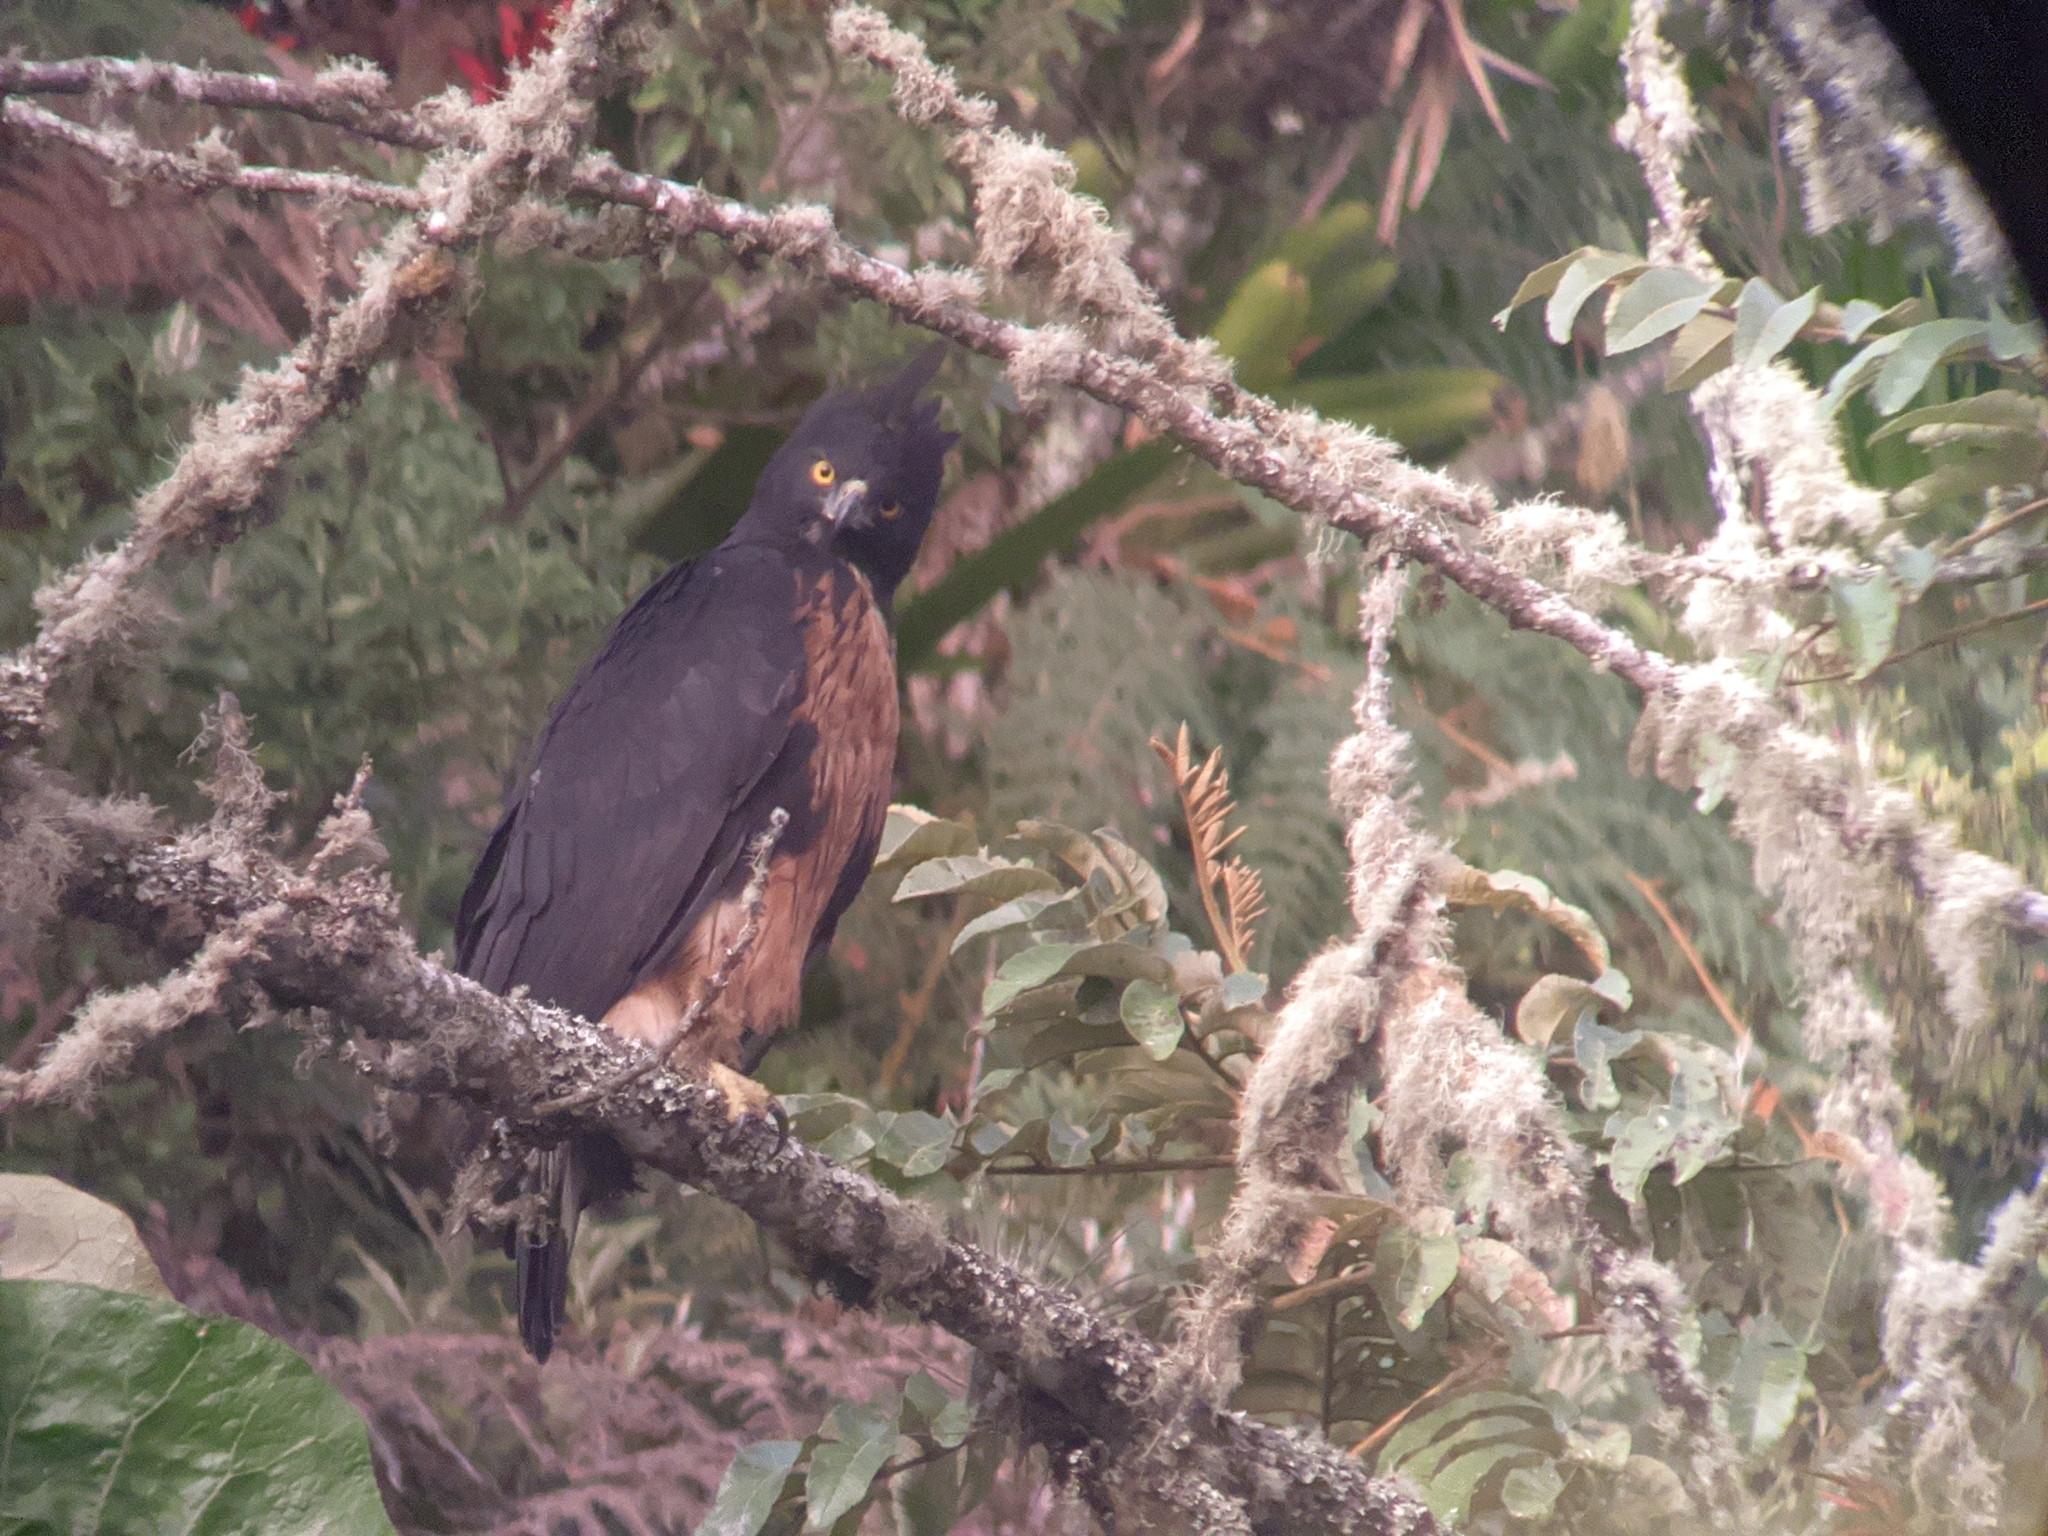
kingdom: Animalia
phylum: Chordata
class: Aves
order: Accipitriformes
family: Accipitridae
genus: Spizaetus
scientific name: Spizaetus isidori
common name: Black-and-chestnut eagle
